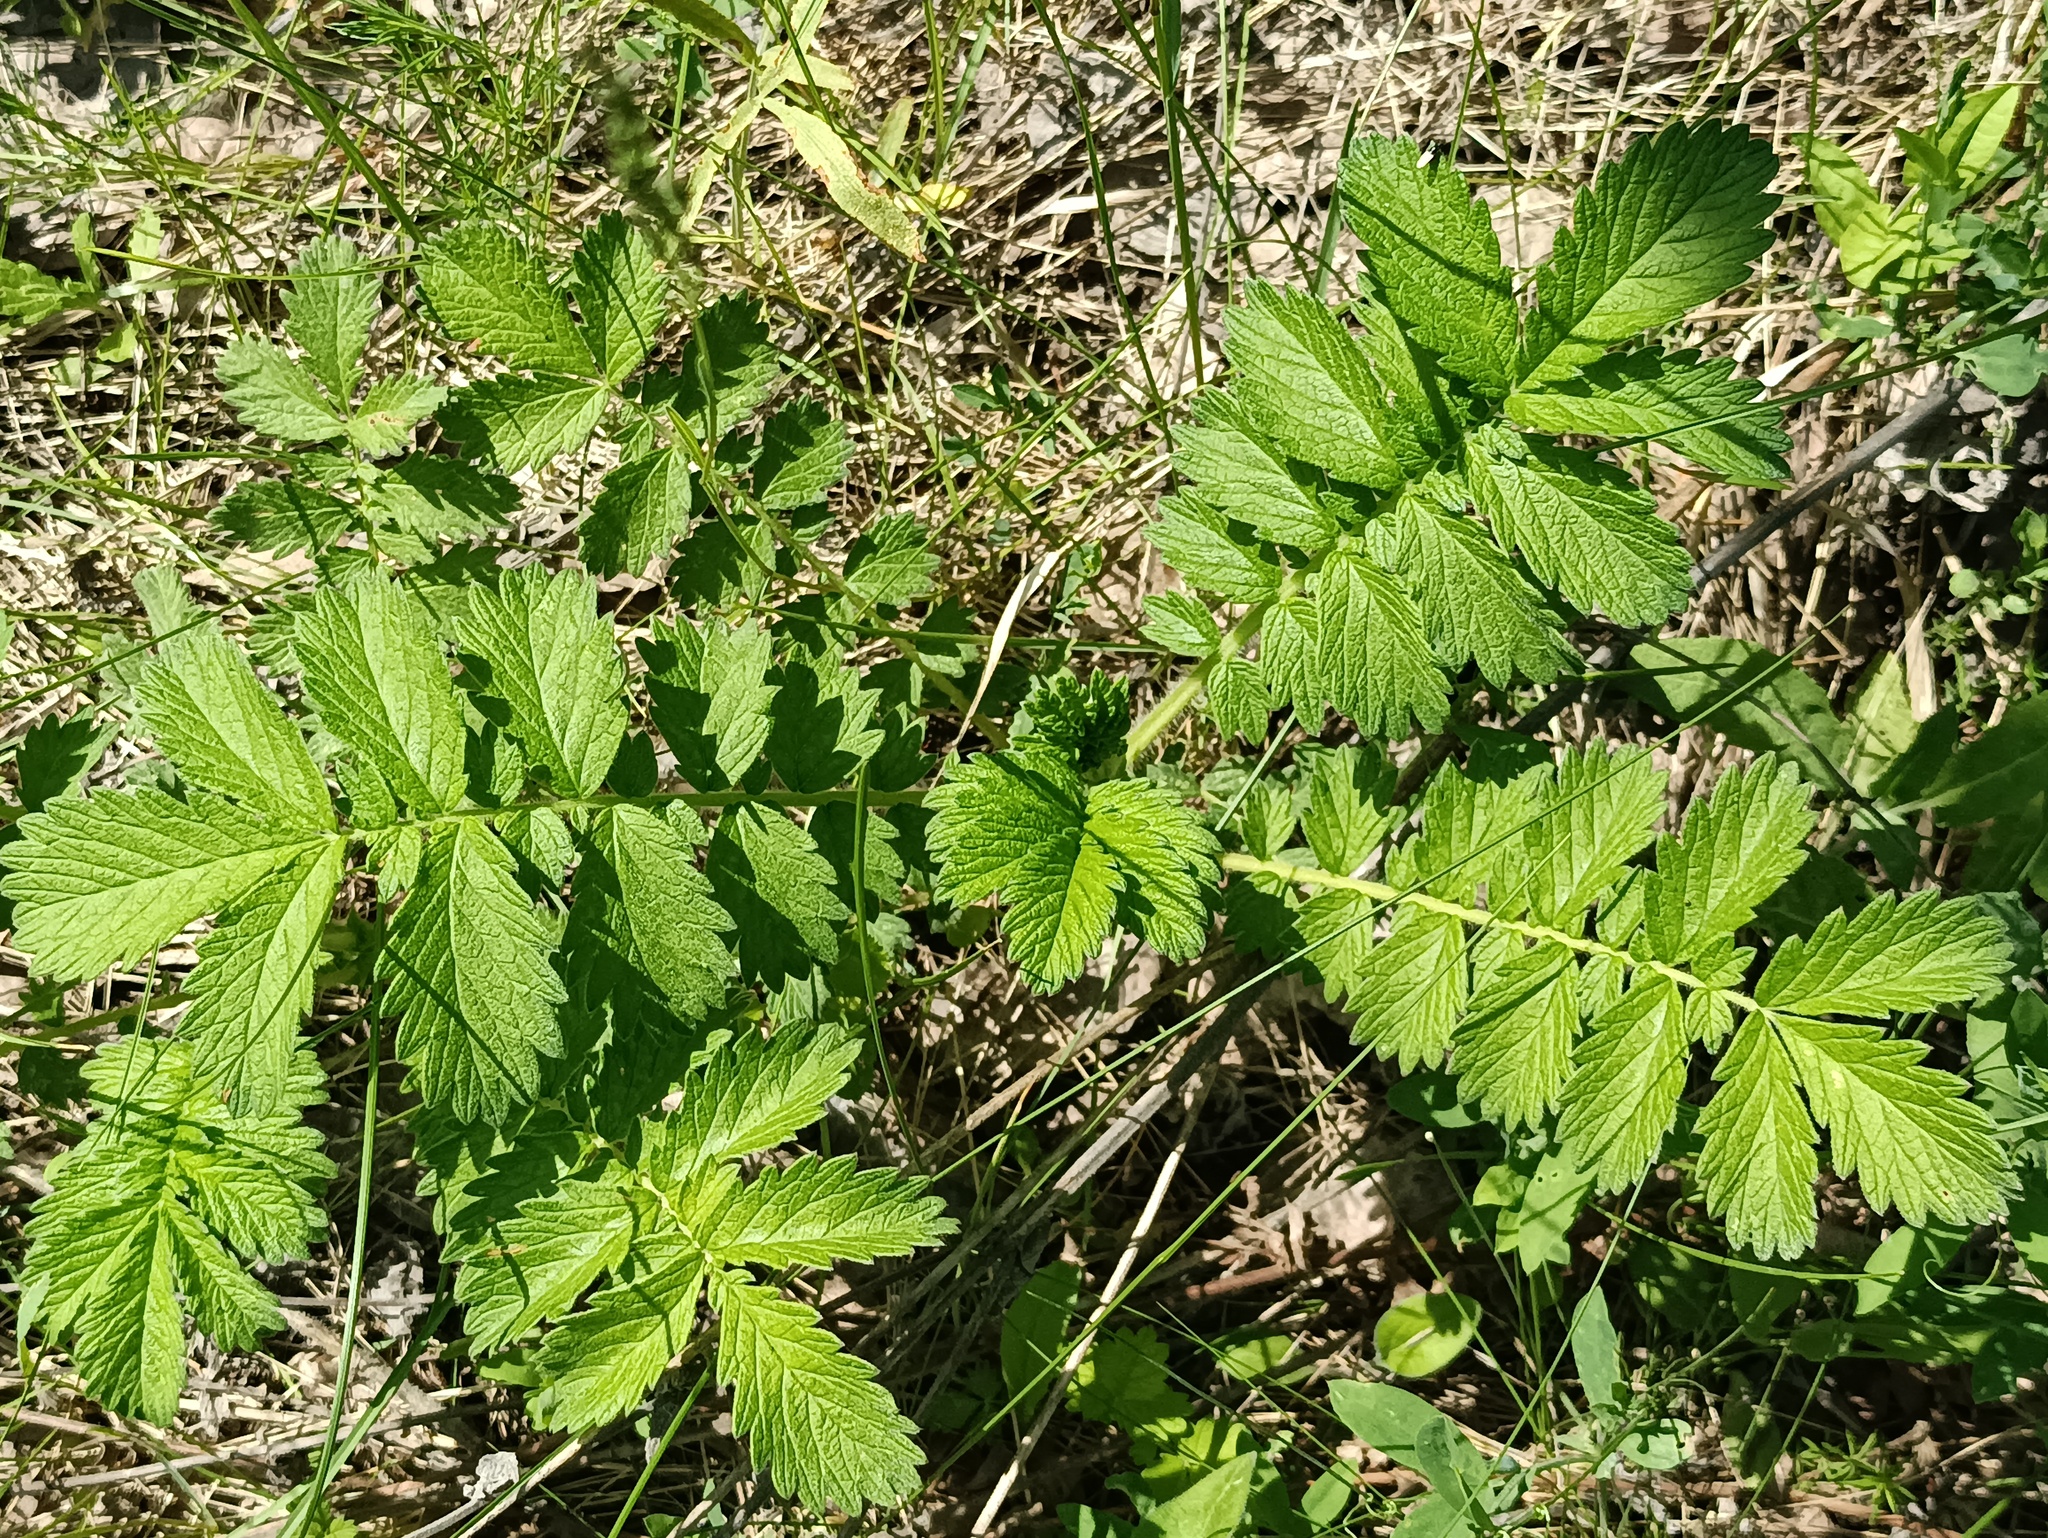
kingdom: Plantae
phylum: Tracheophyta
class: Magnoliopsida
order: Rosales
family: Rosaceae
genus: Agrimonia
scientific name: Agrimonia eupatoria
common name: Agrimony
